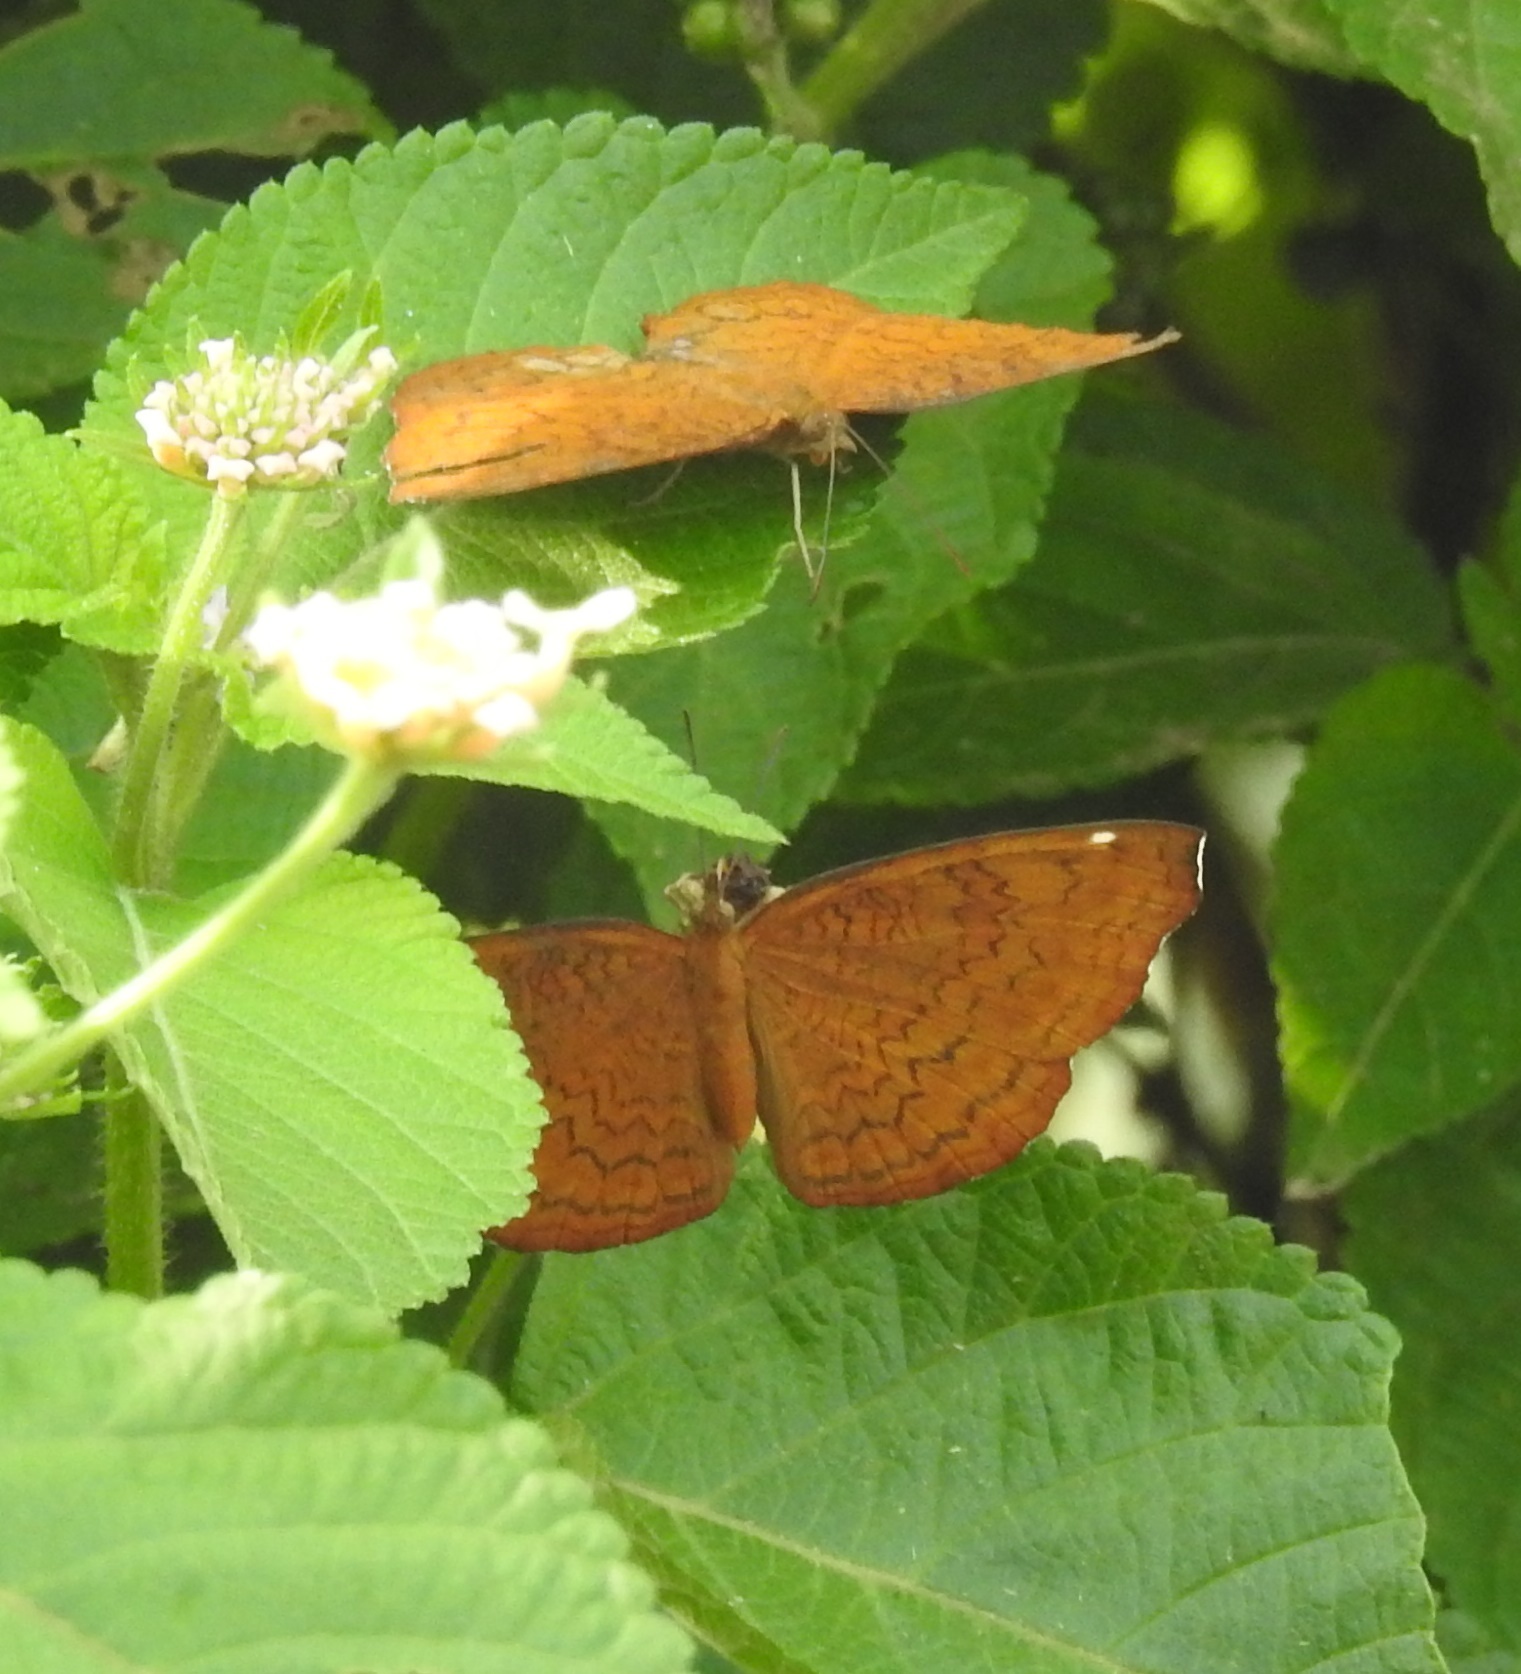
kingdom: Animalia
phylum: Arthropoda
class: Insecta
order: Lepidoptera
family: Nymphalidae
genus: Ariadne
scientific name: Ariadne merione
